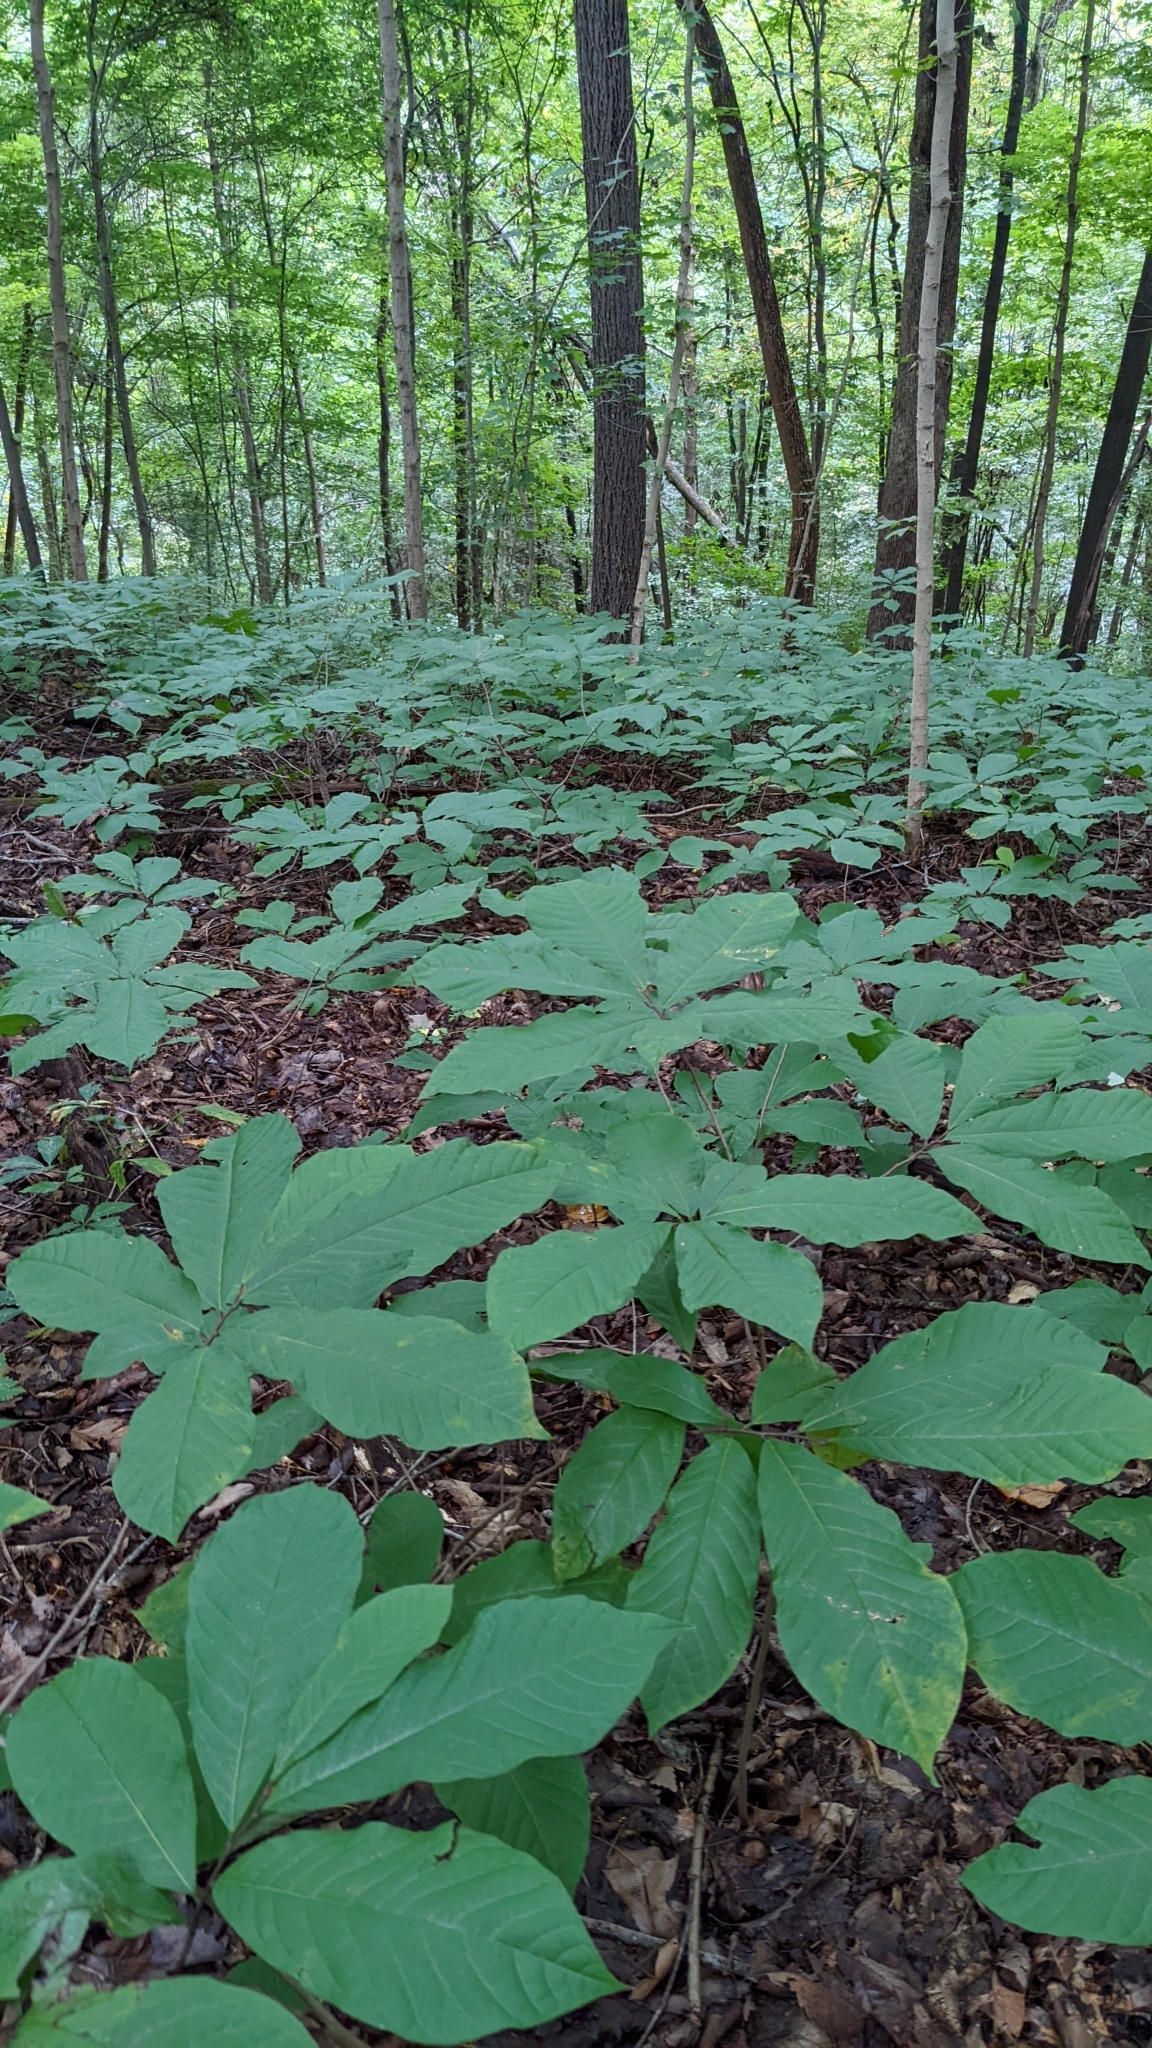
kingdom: Plantae
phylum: Tracheophyta
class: Magnoliopsida
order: Magnoliales
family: Annonaceae
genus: Asimina
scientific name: Asimina triloba
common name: Dog-banana
